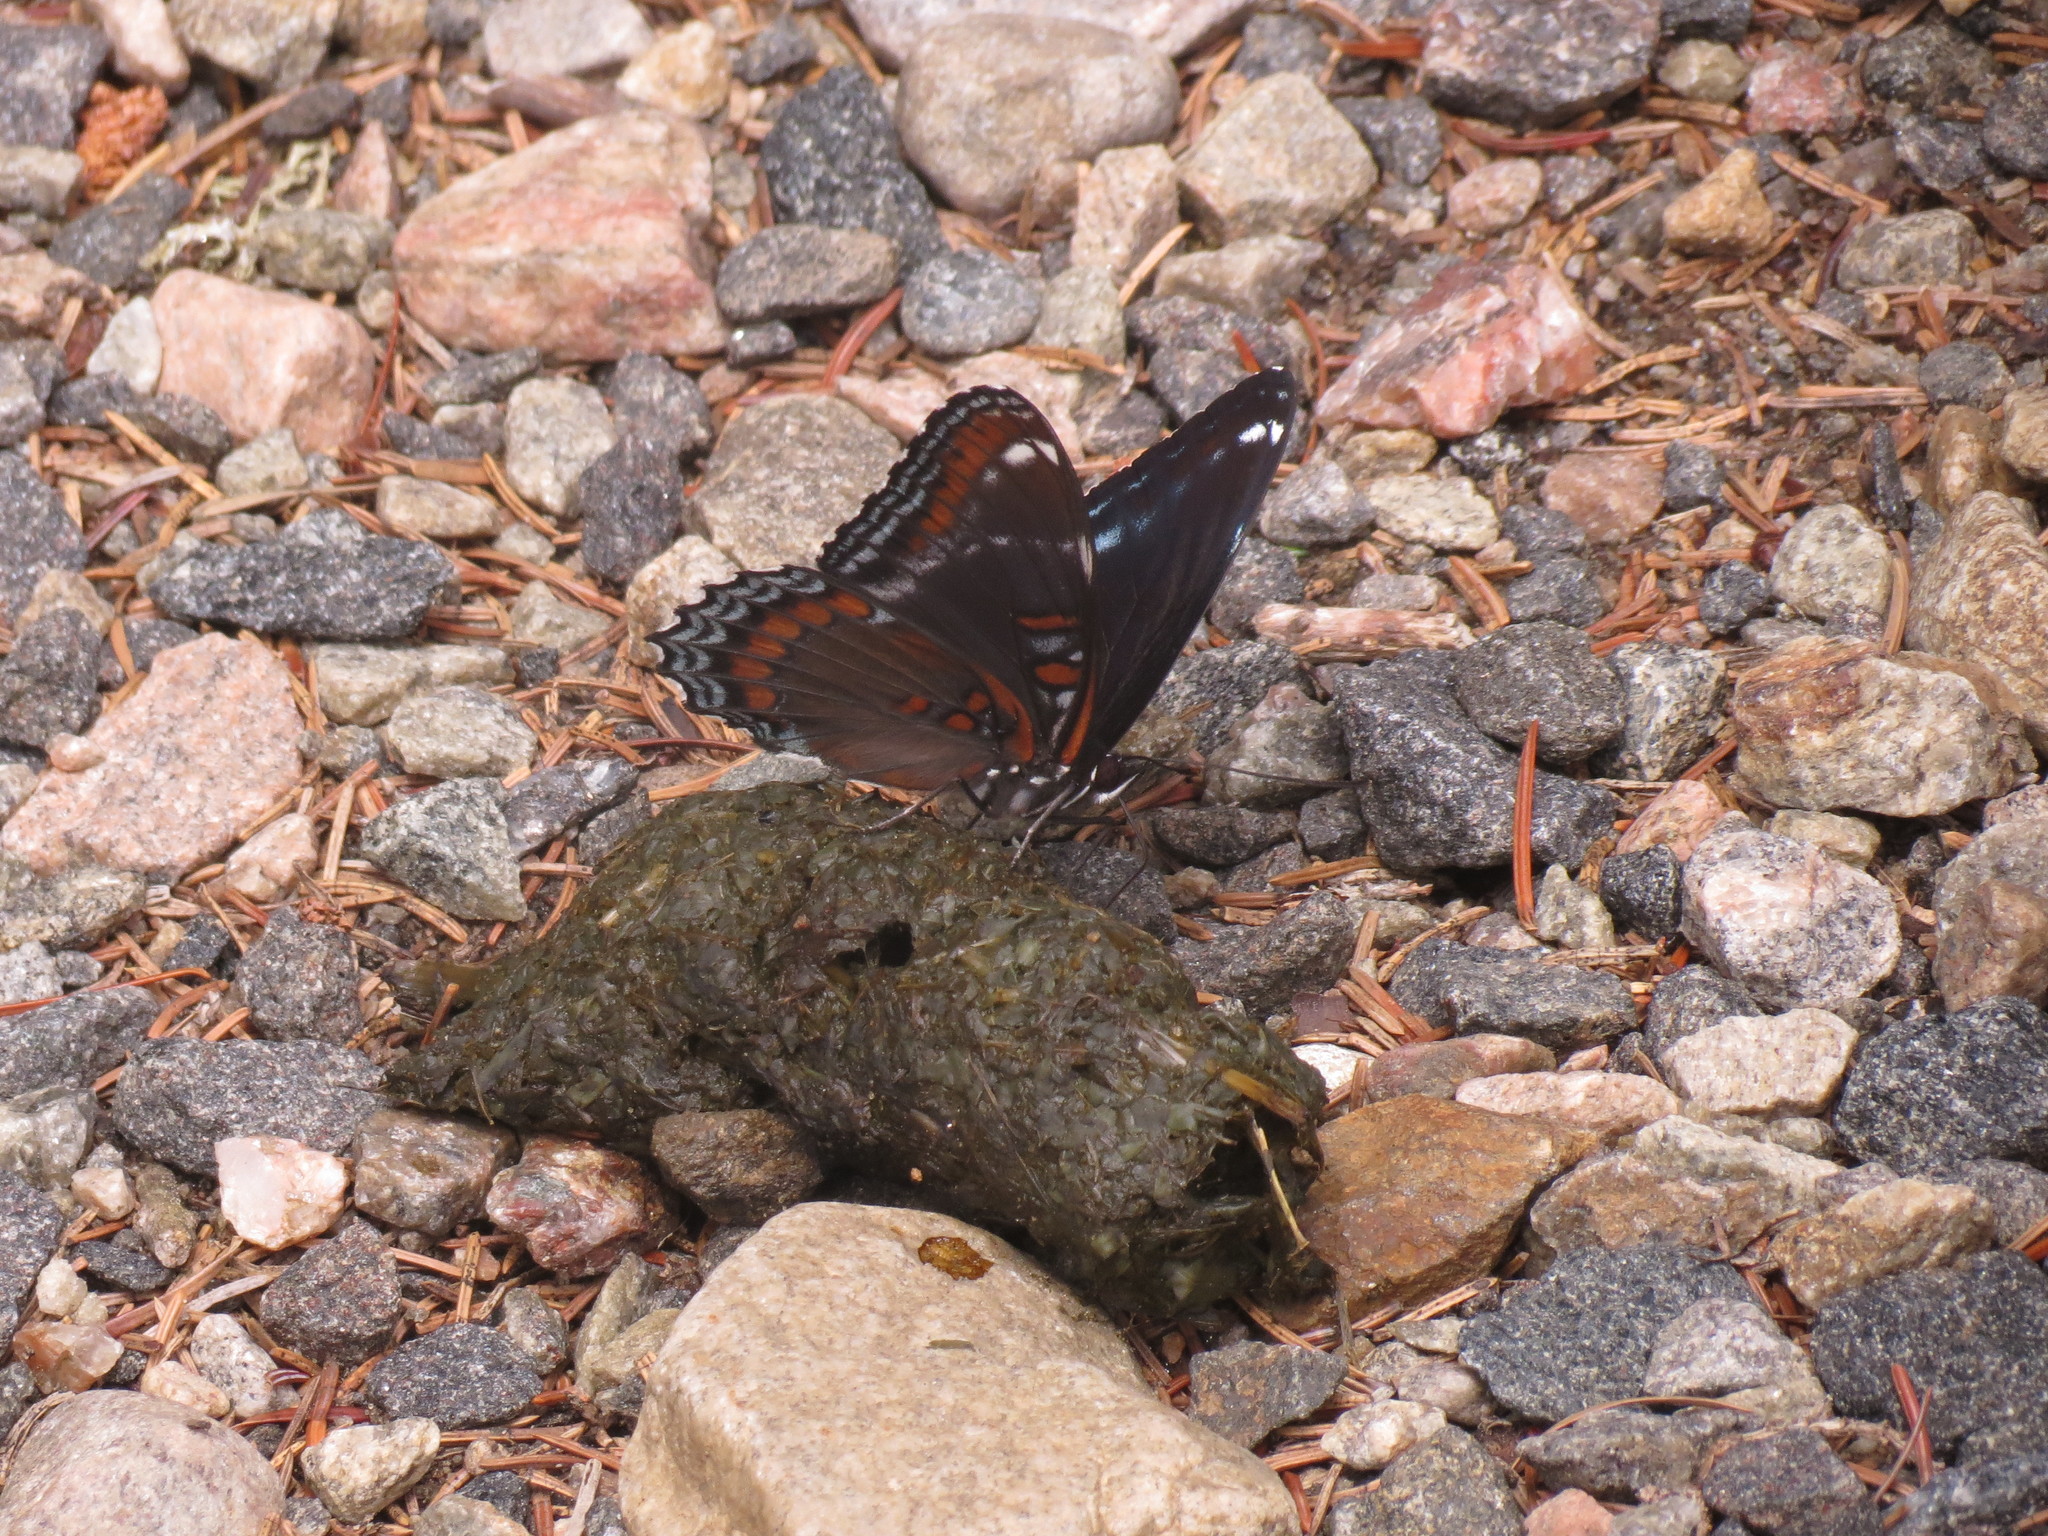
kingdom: Animalia
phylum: Arthropoda
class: Insecta
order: Lepidoptera
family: Nymphalidae
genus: Limenitis
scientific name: Limenitis arthemis
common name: Red-spotted admiral
